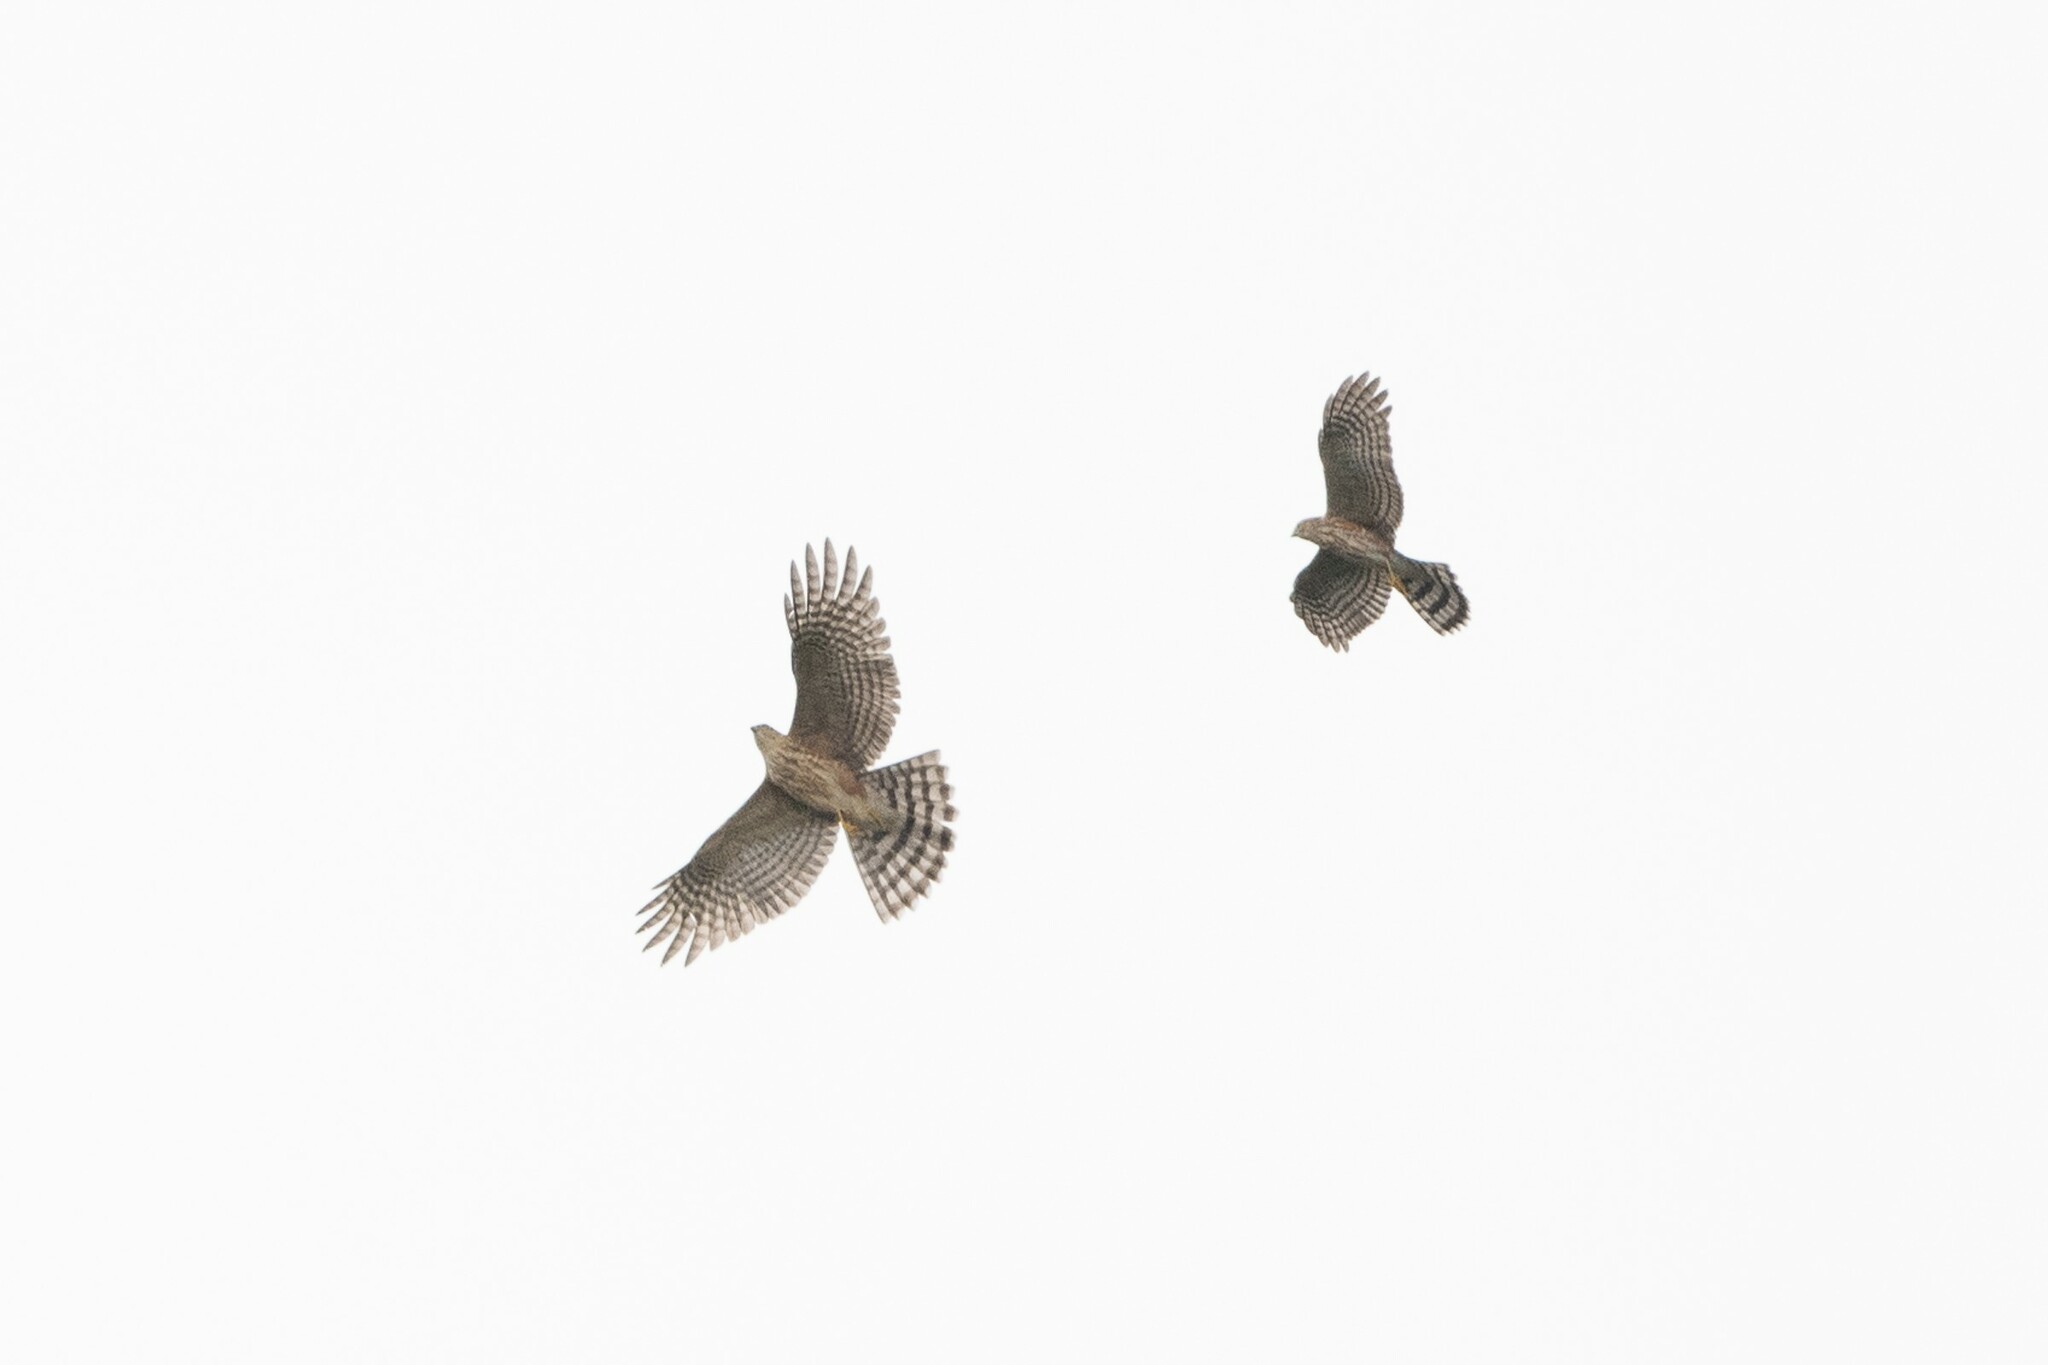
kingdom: Animalia
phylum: Chordata
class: Aves
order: Accipitriformes
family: Accipitridae
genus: Accipiter
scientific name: Accipiter striatus
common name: Sharp-shinned hawk
